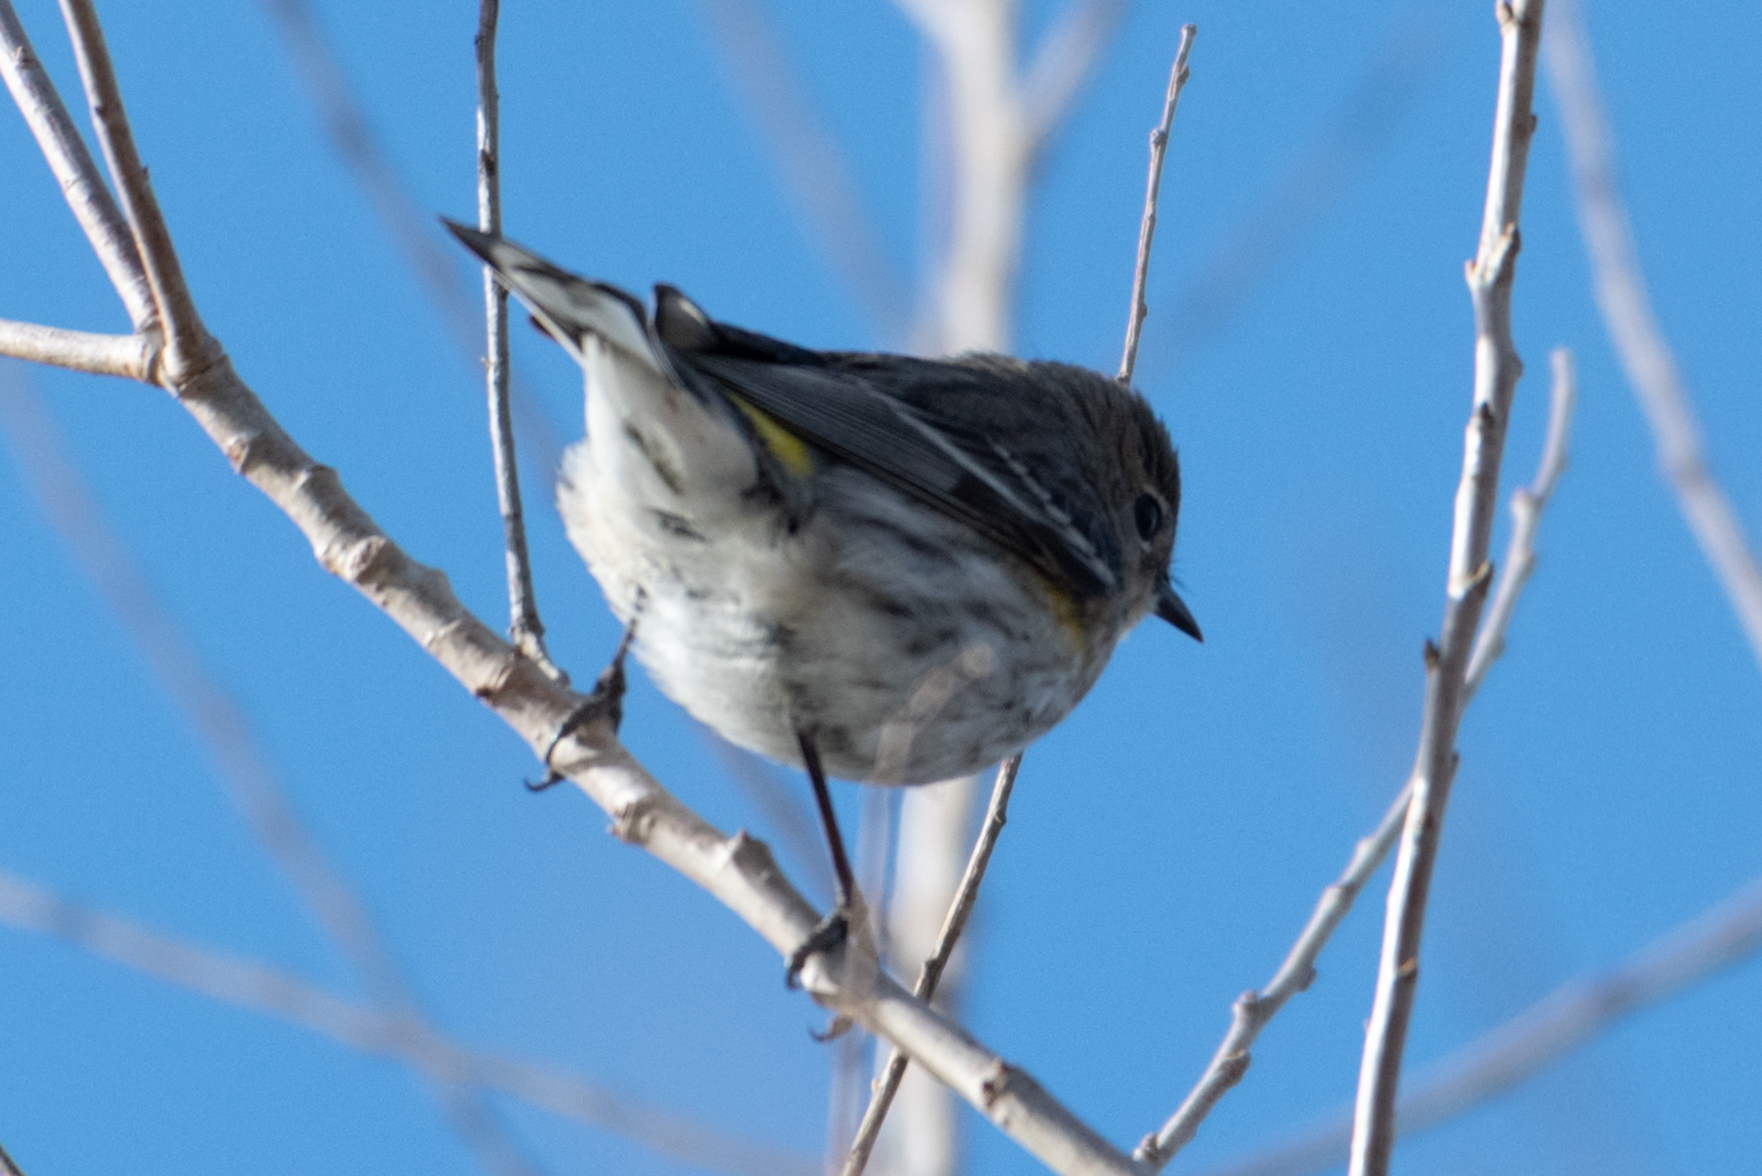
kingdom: Animalia
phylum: Chordata
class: Aves
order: Passeriformes
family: Parulidae
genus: Setophaga
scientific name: Setophaga coronata
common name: Myrtle warbler
